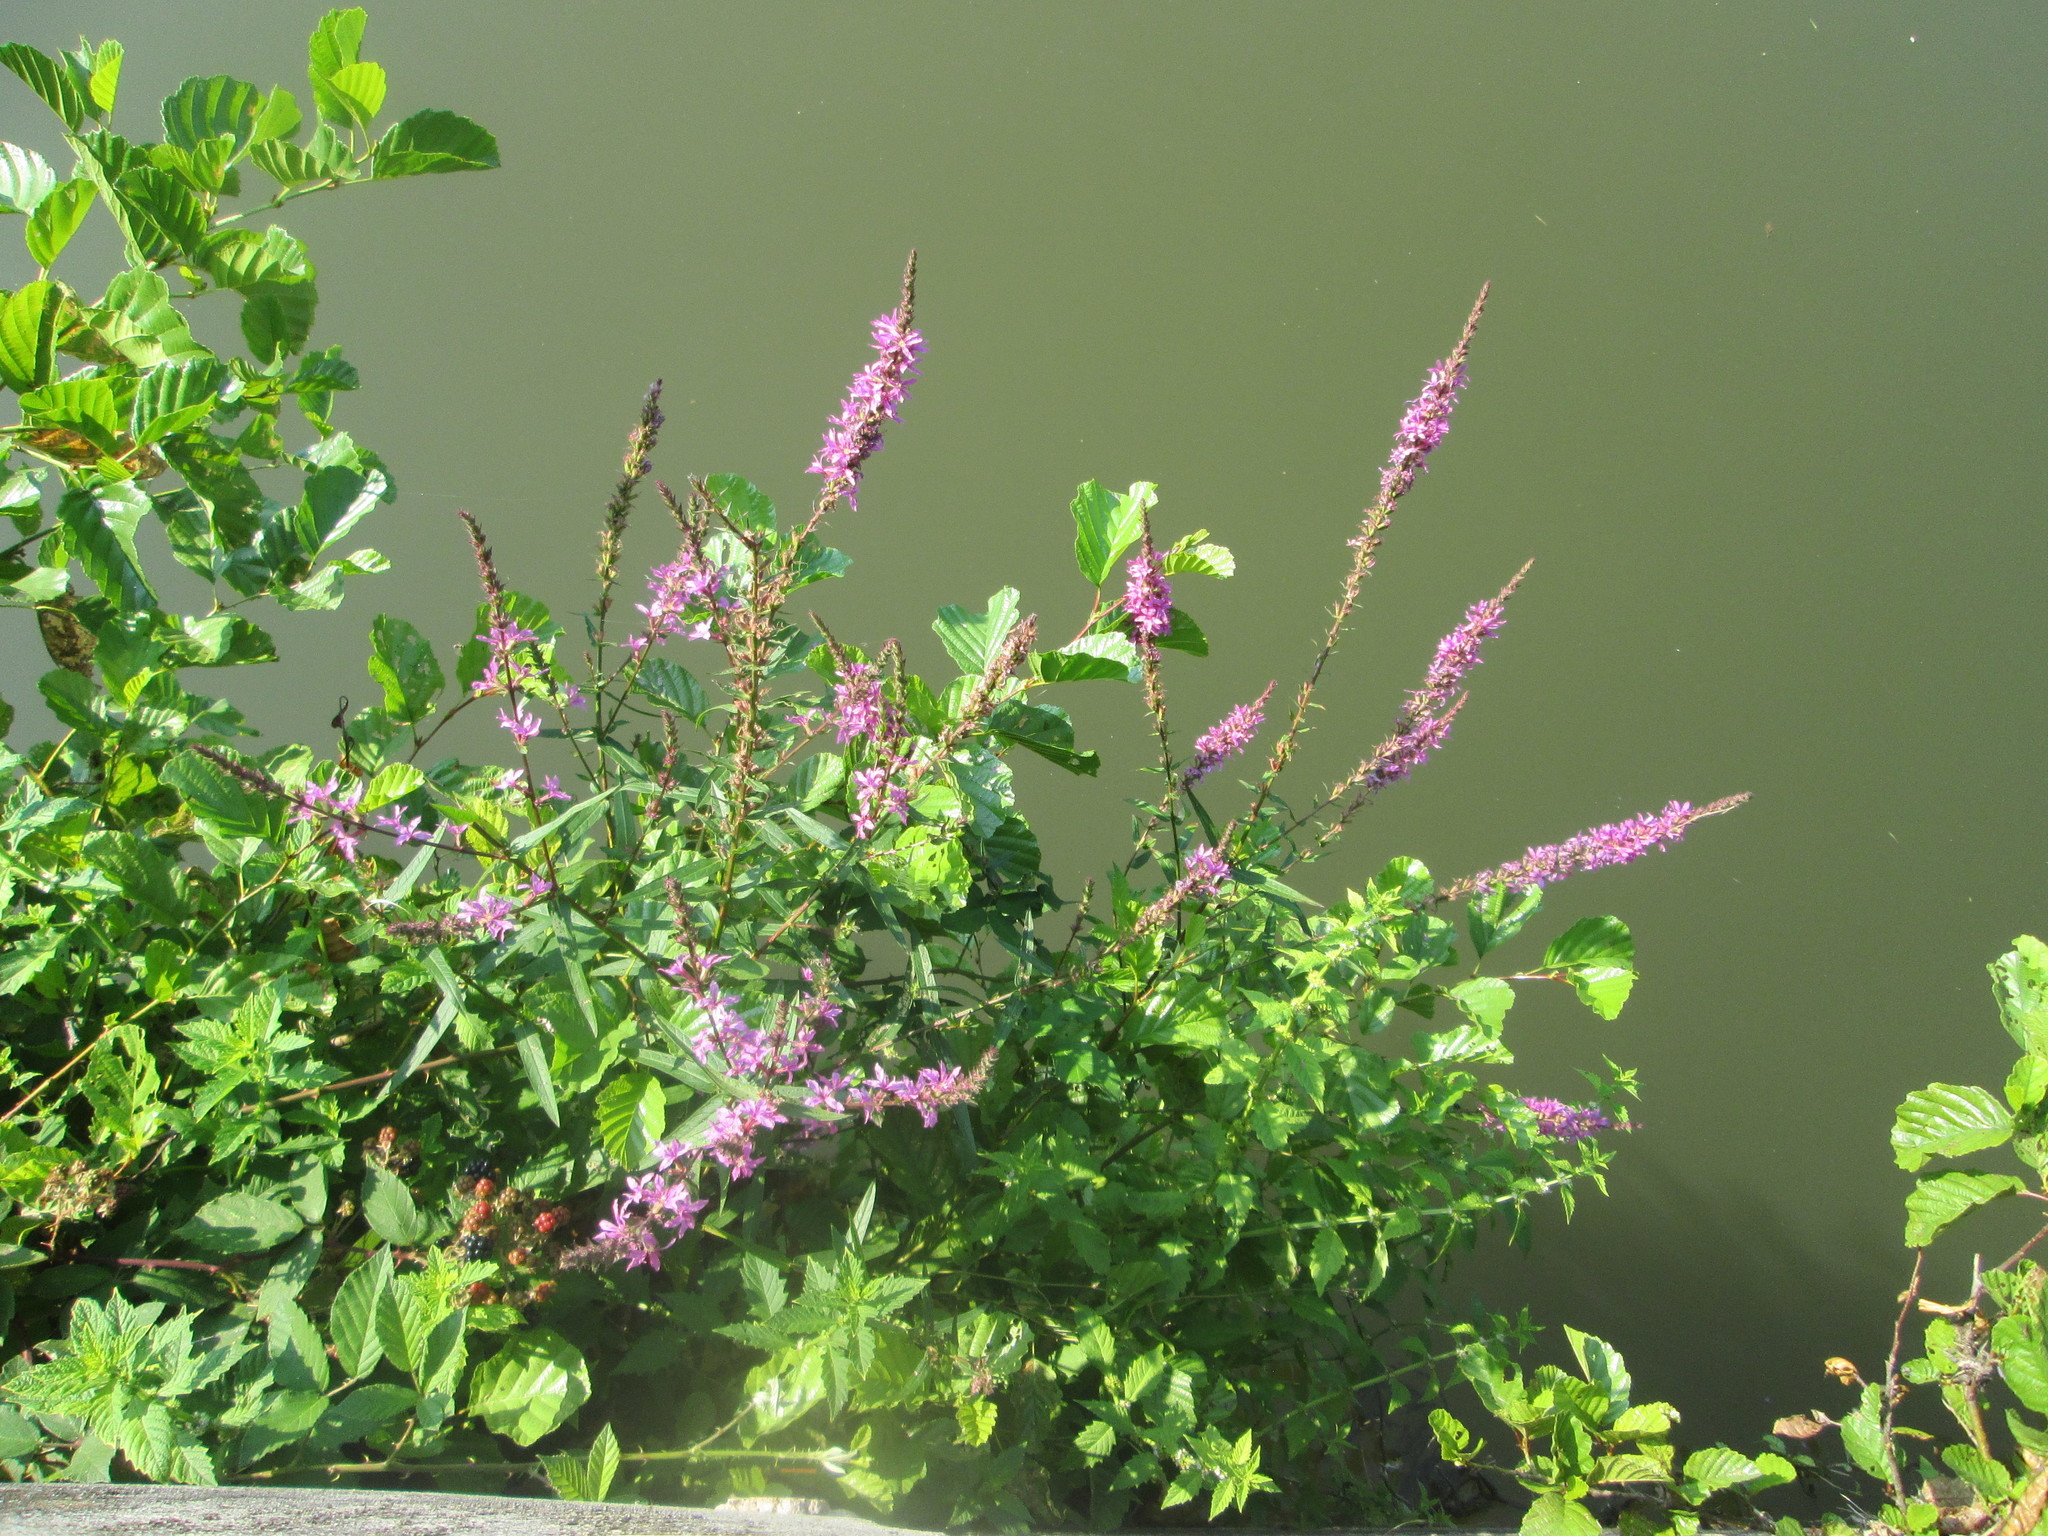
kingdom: Plantae
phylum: Tracheophyta
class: Magnoliopsida
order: Myrtales
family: Lythraceae
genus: Lythrum
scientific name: Lythrum salicaria
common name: Purple loosestrife
